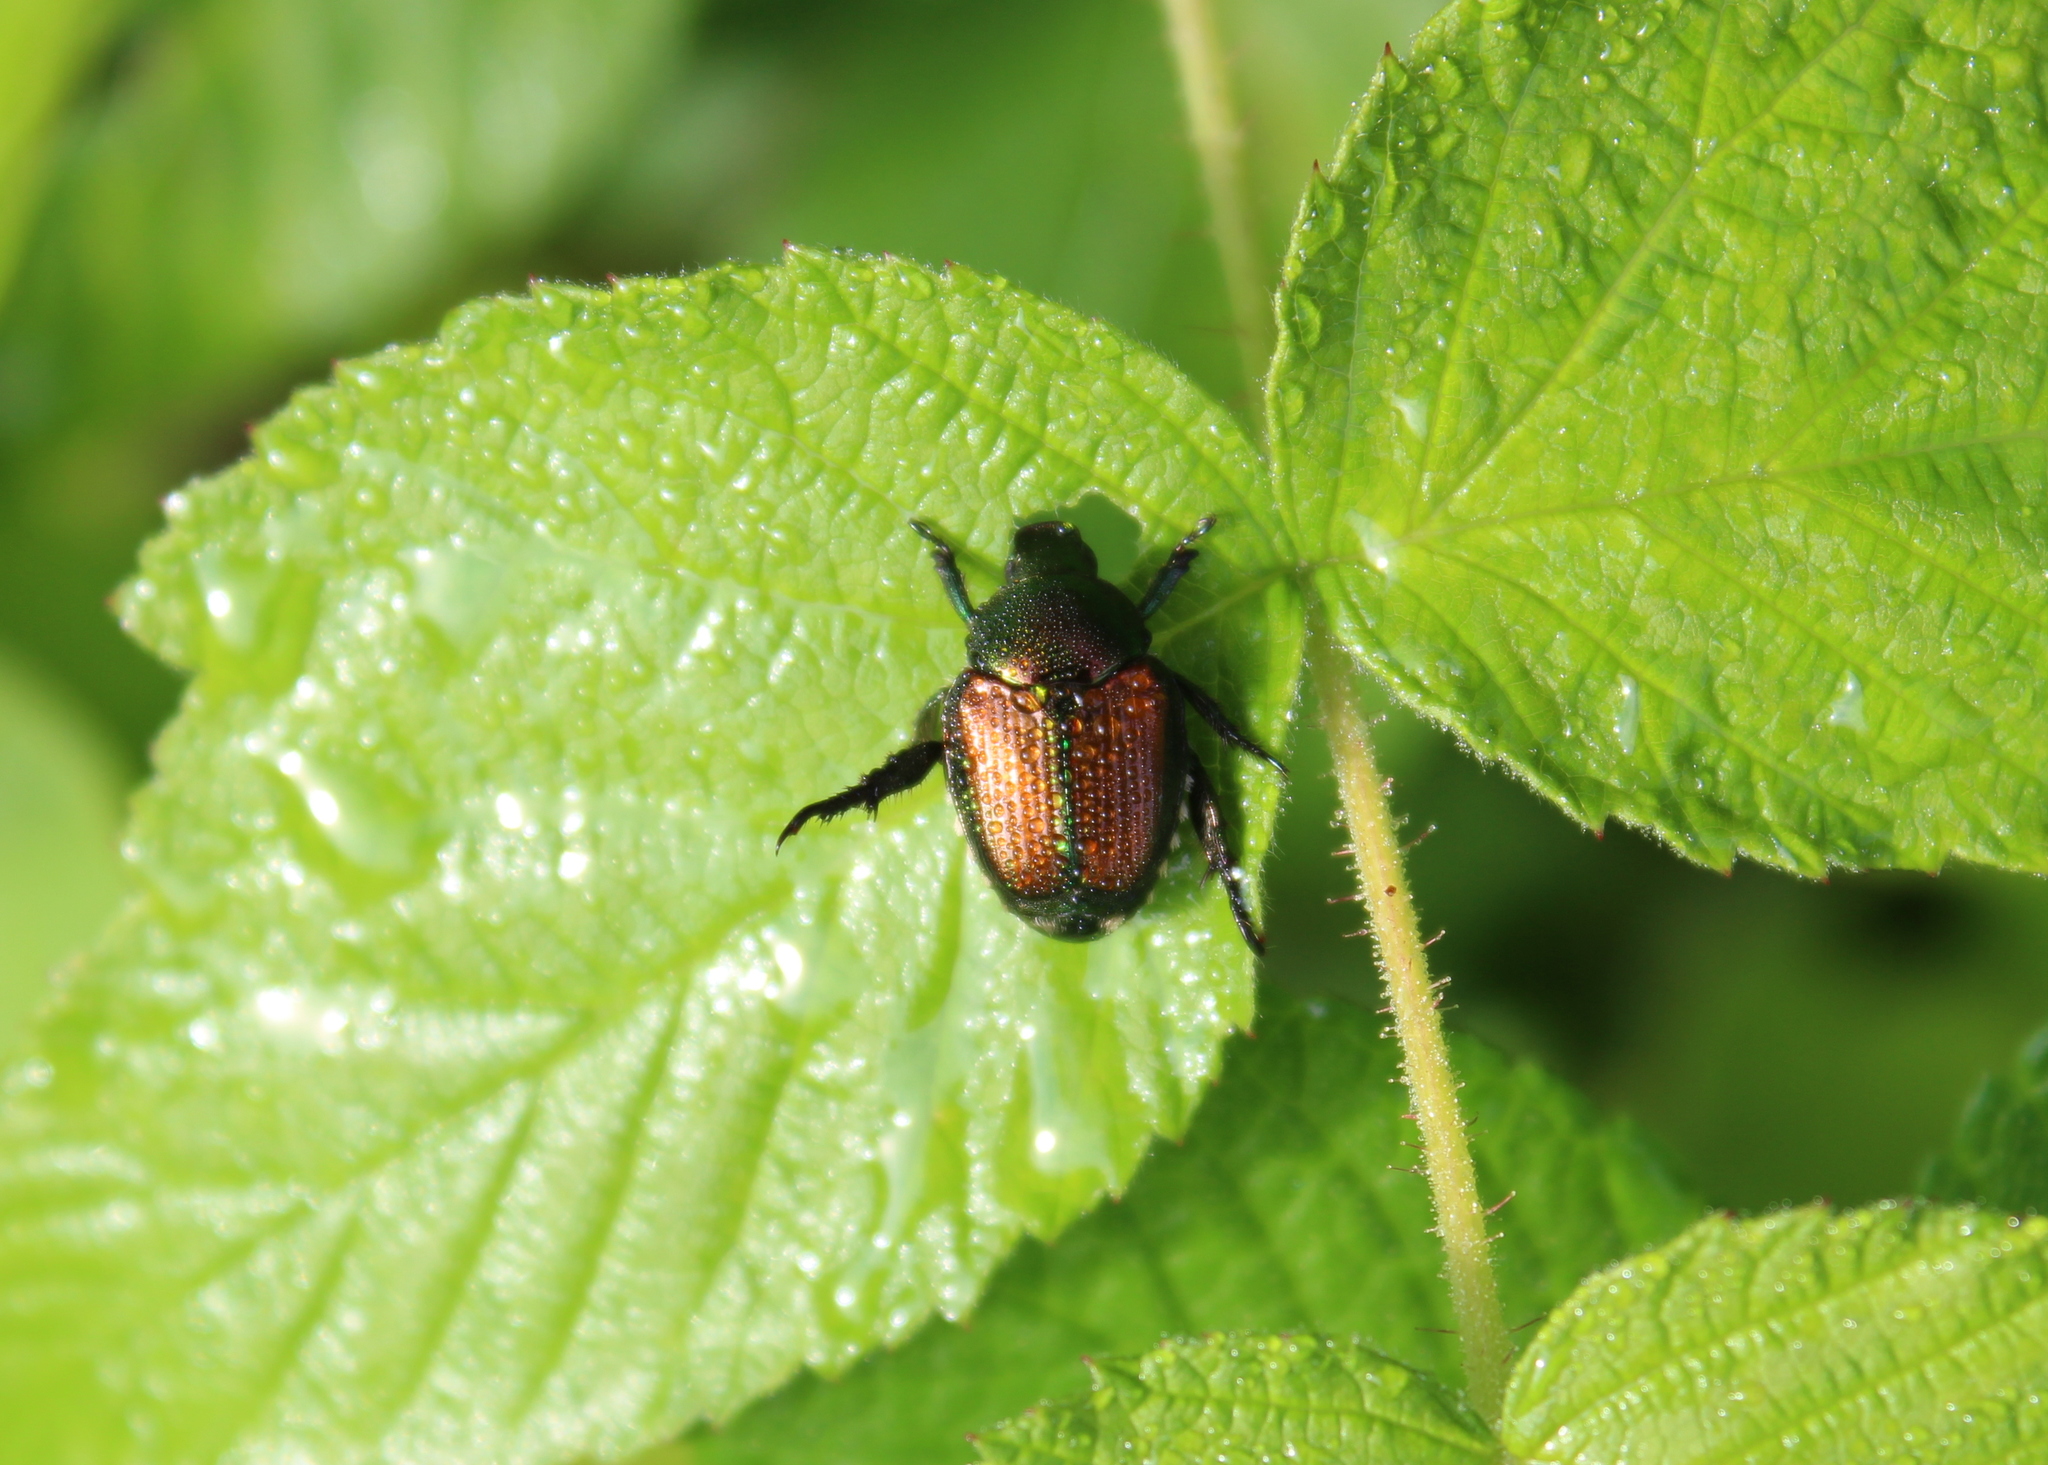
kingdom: Animalia
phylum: Arthropoda
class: Insecta
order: Coleoptera
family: Scarabaeidae
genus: Popillia
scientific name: Popillia japonica
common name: Japanese beetle
